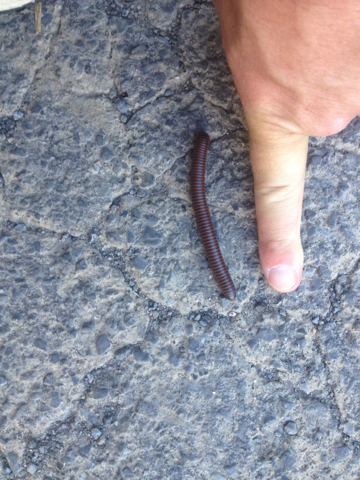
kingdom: Animalia
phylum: Arthropoda
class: Diplopoda
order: Spirobolida
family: Spirobolidae
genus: Narceus
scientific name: Narceus
